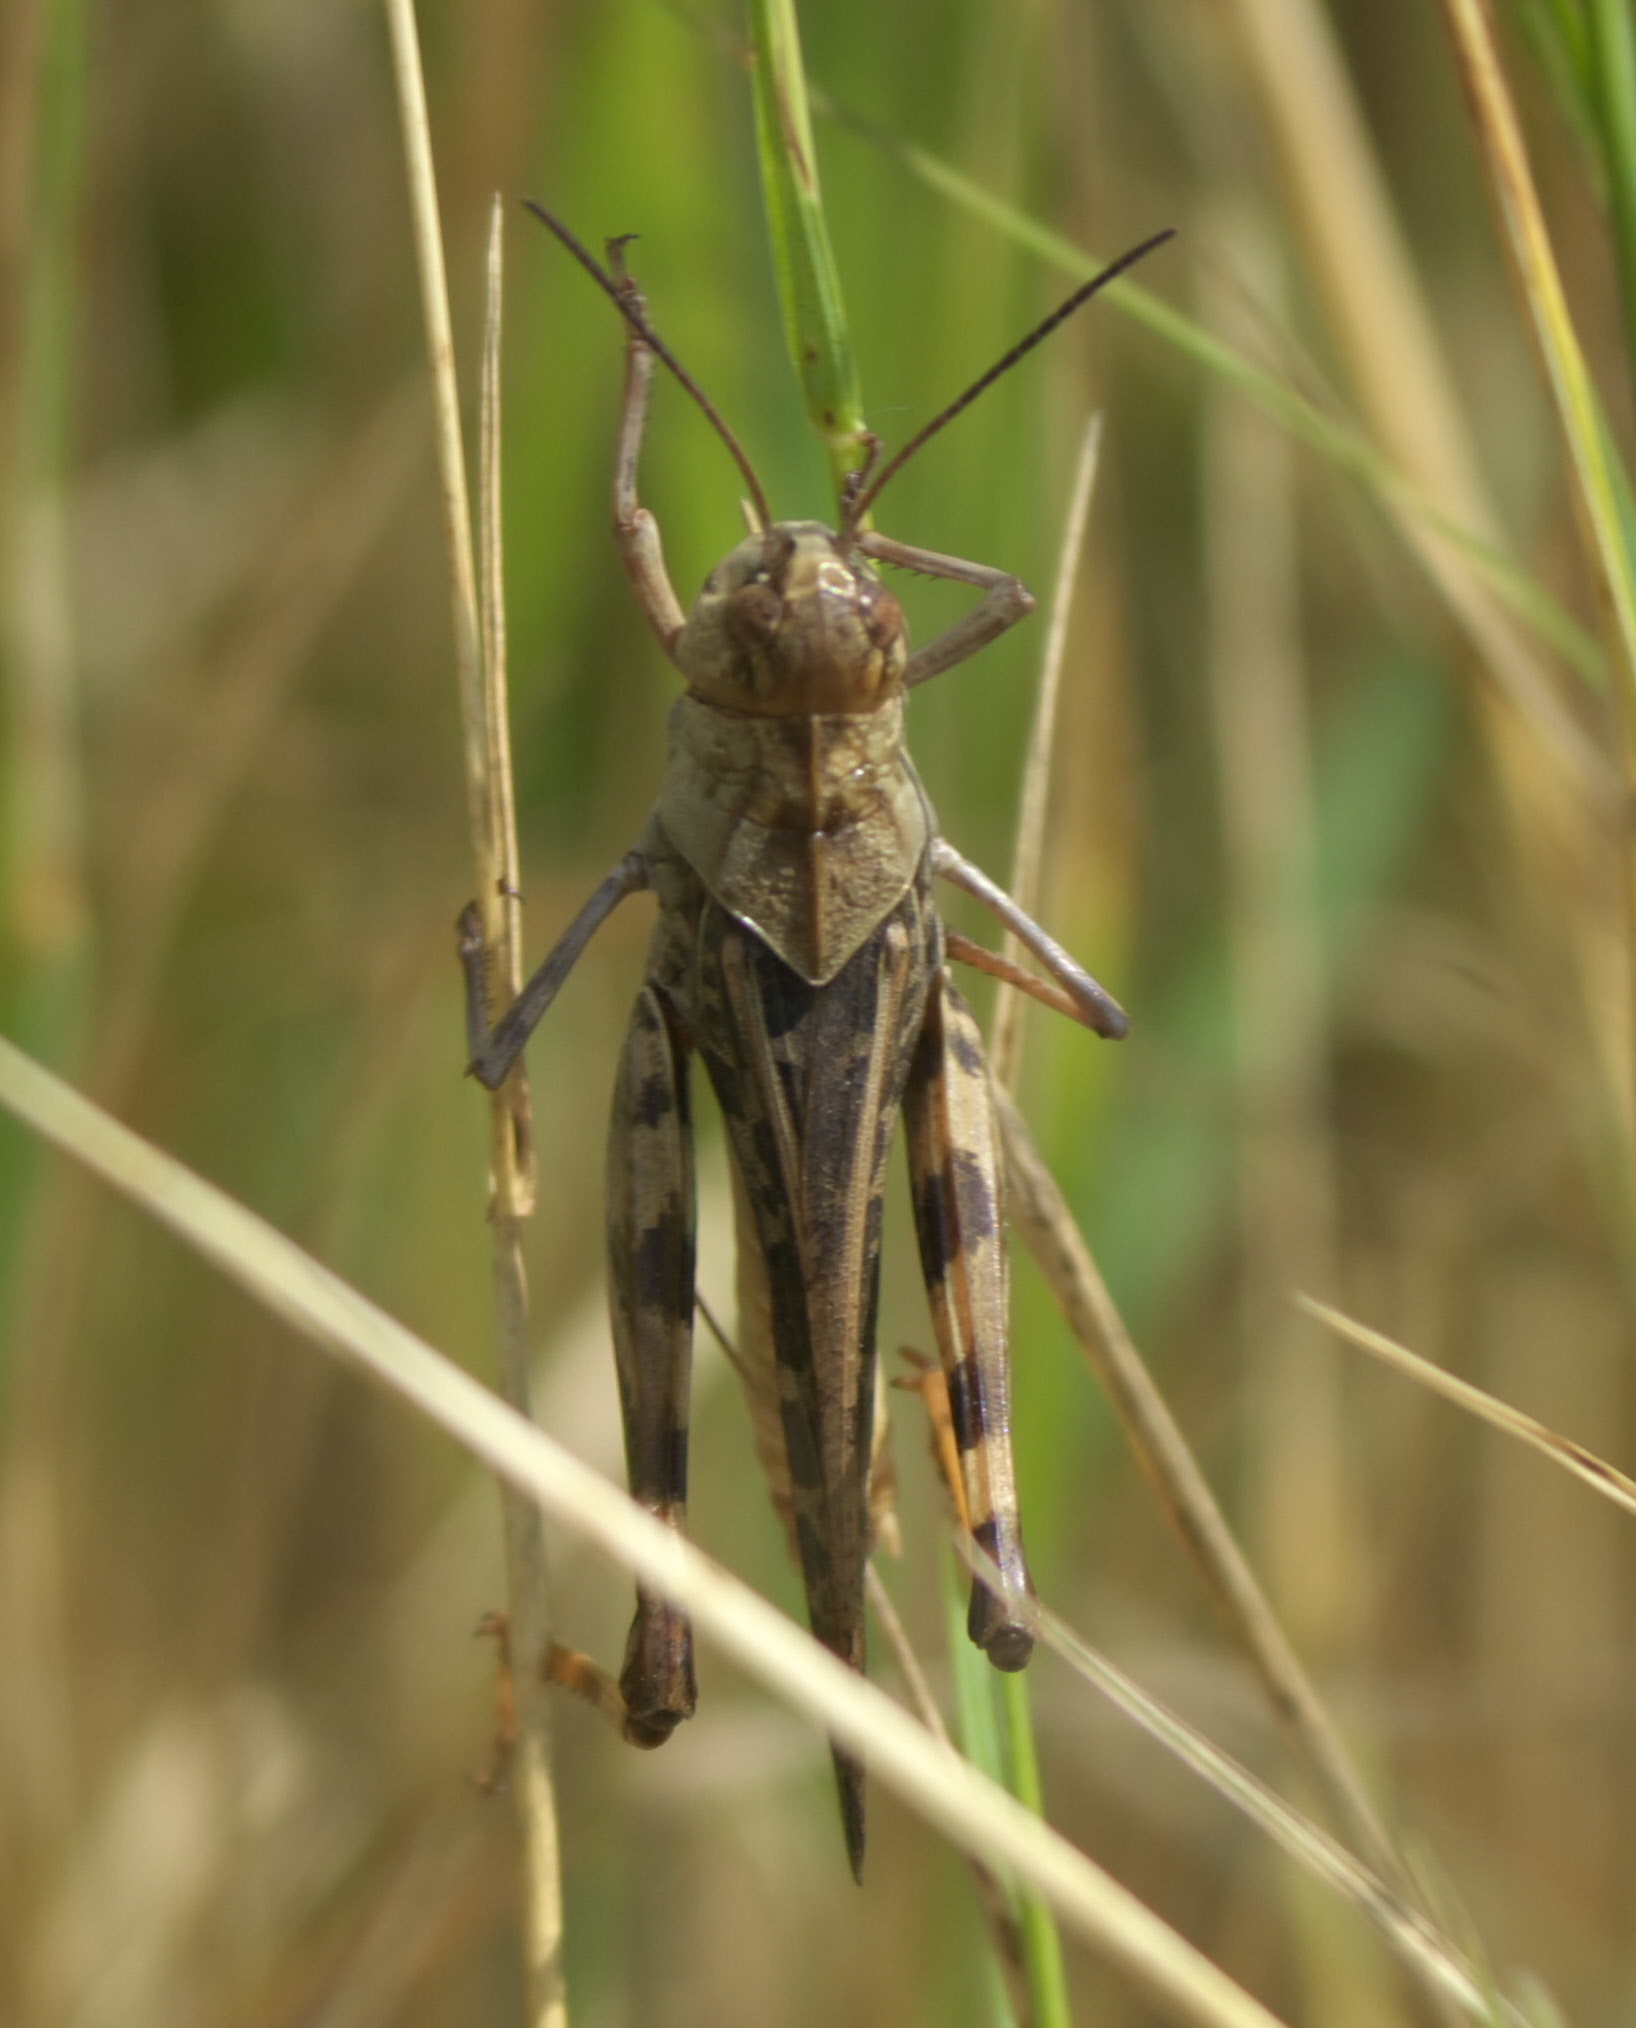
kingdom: Animalia
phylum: Arthropoda
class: Insecta
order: Orthoptera
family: Acrididae
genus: Hippiscus
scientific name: Hippiscus ocelote
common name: Wrinkled grasshopper
